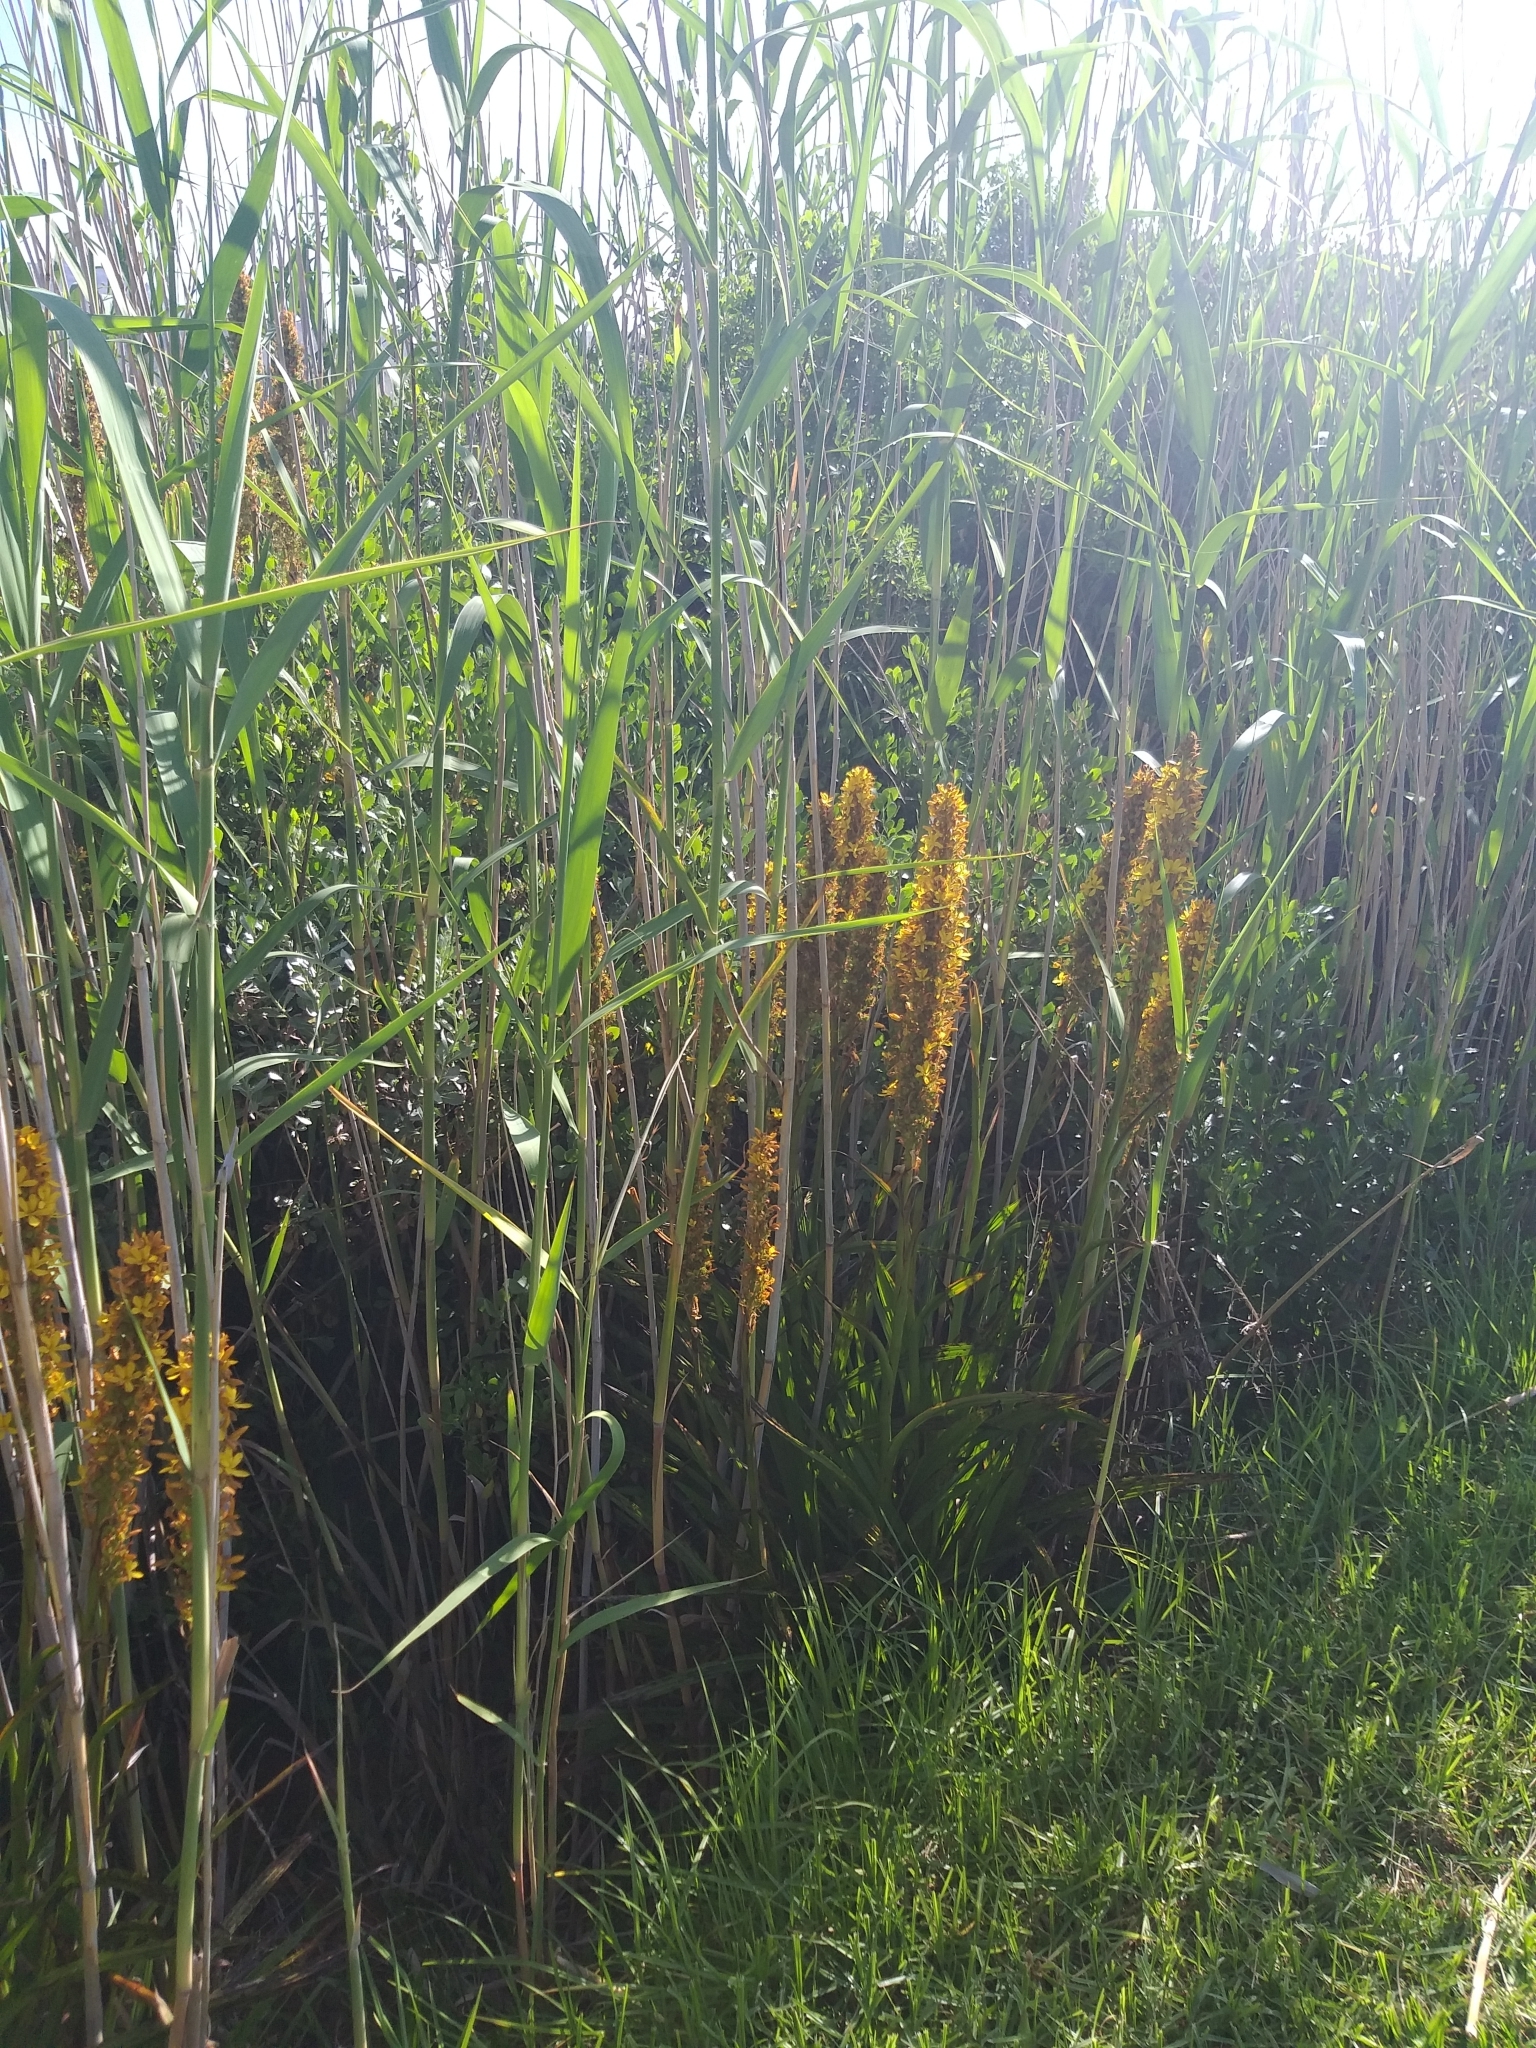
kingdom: Plantae
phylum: Tracheophyta
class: Liliopsida
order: Commelinales
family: Haemodoraceae
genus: Wachendorfia
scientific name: Wachendorfia thyrsiflora
